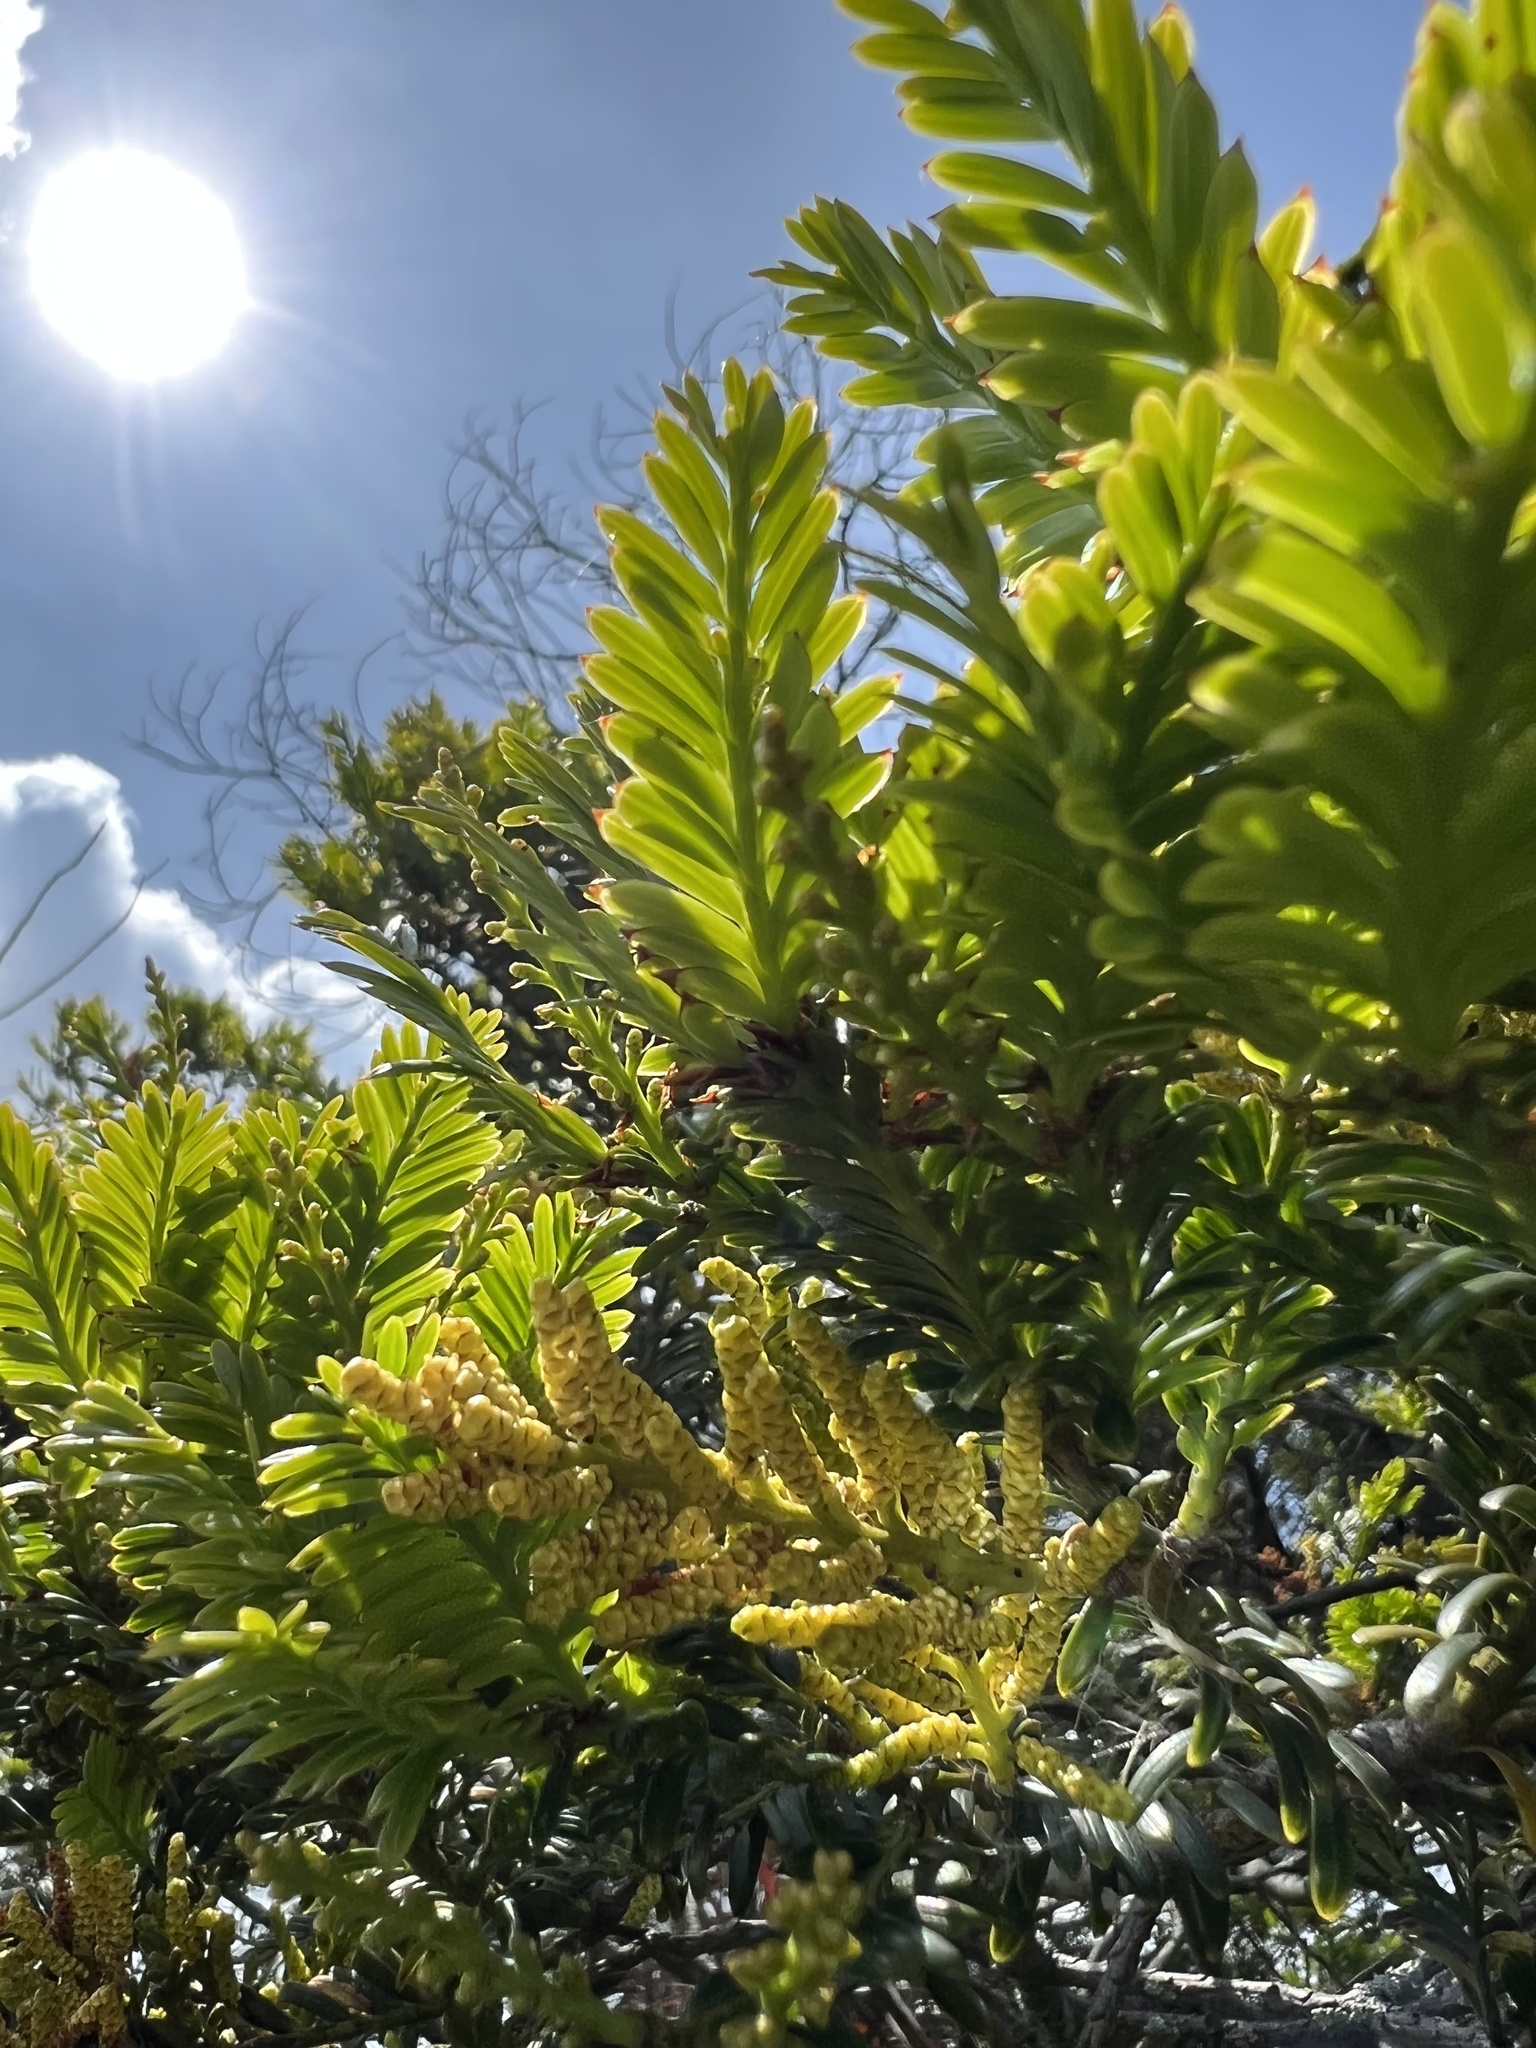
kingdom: Plantae
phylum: Tracheophyta
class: Pinopsida
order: Pinales
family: Podocarpaceae
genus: Prumnopitys
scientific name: Prumnopitys montana
